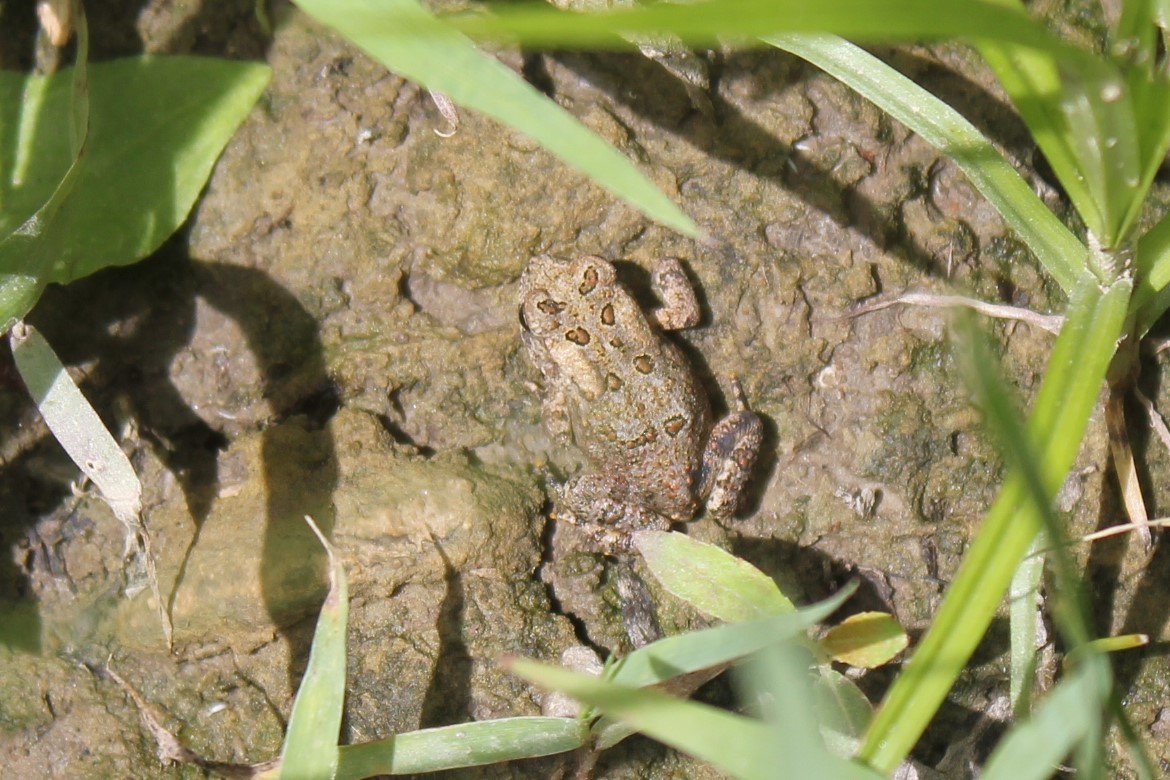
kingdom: Animalia
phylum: Chordata
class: Amphibia
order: Anura
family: Bufonidae
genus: Anaxyrus
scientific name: Anaxyrus americanus
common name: American toad
